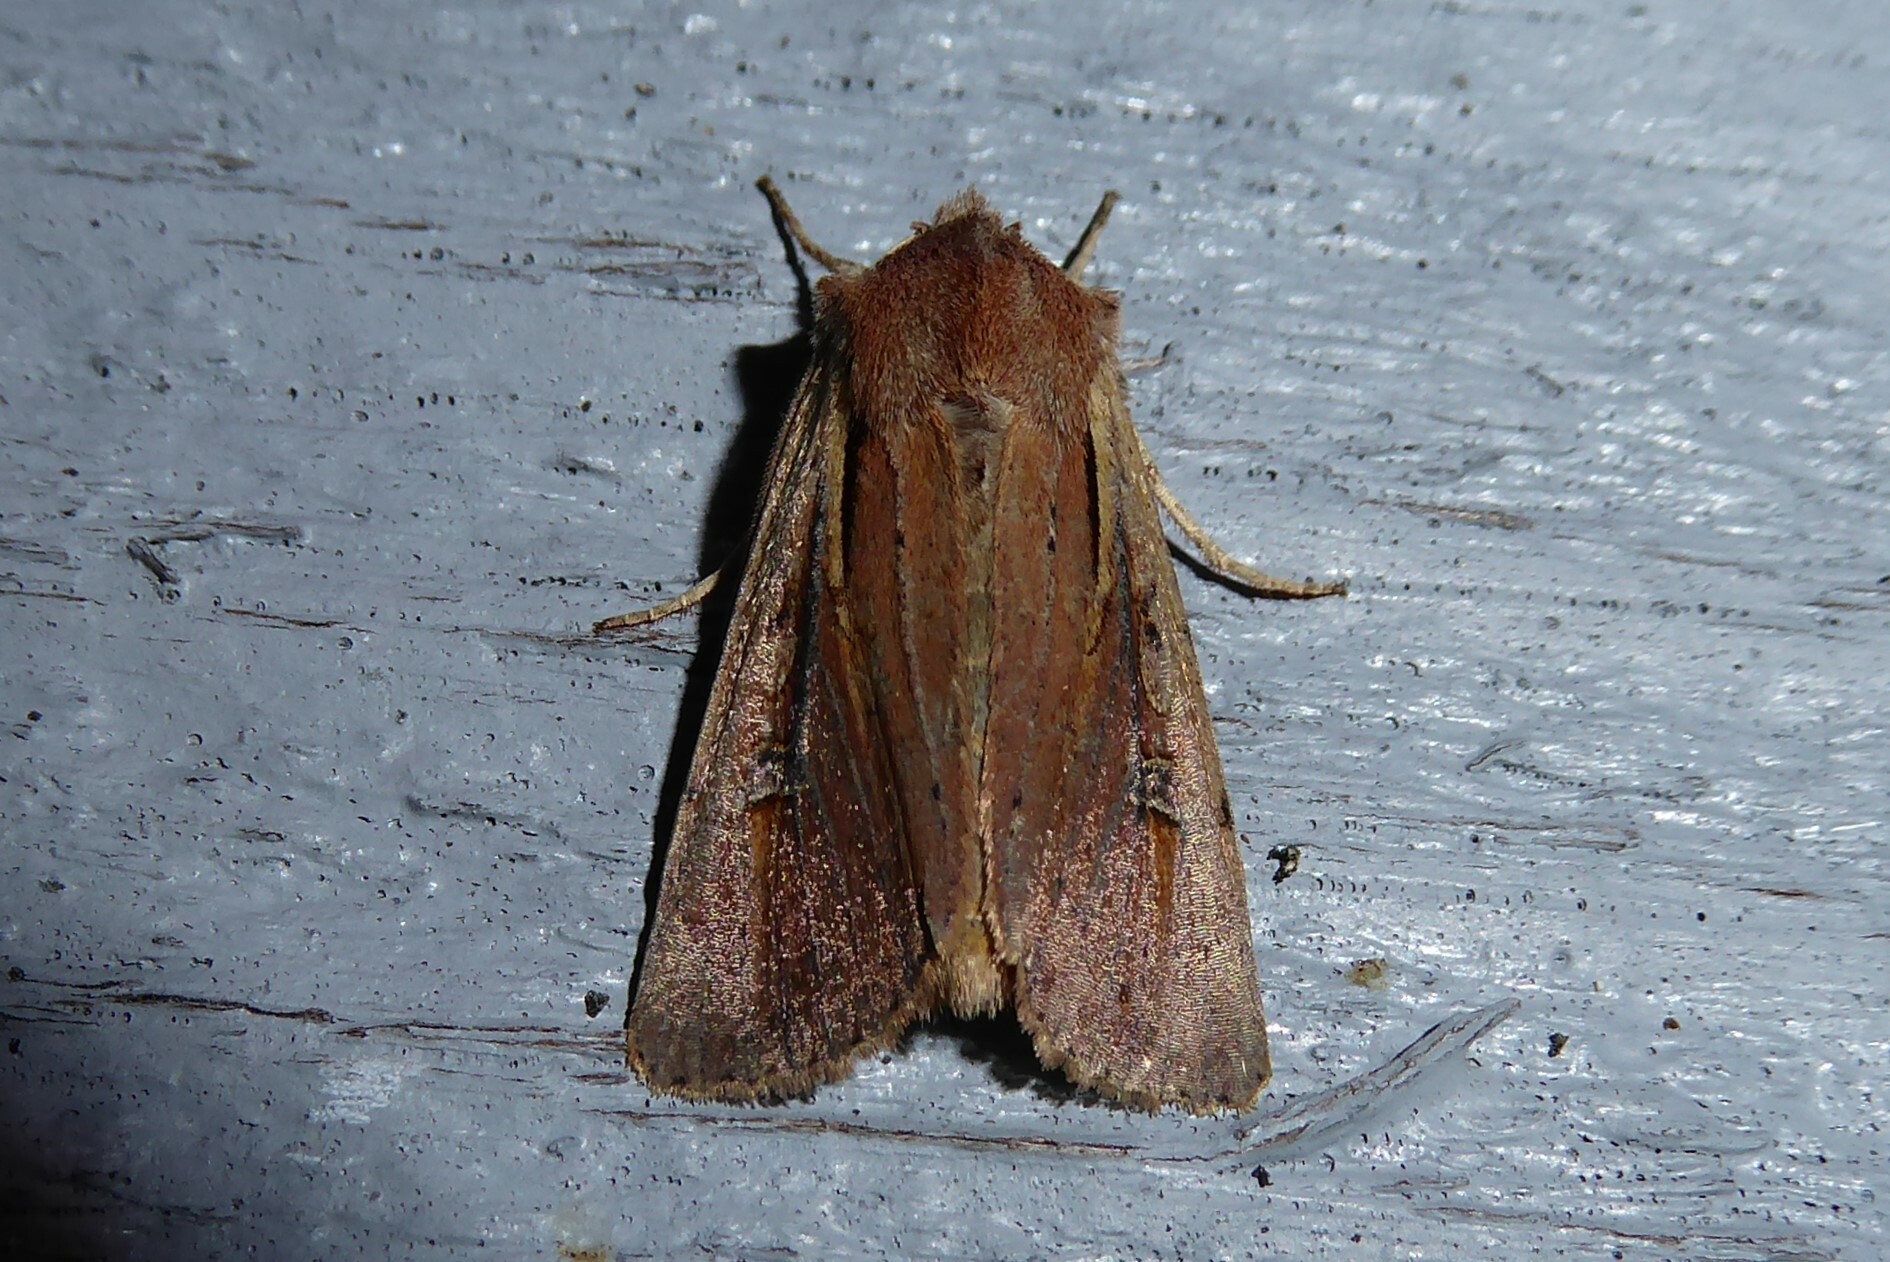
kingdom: Animalia
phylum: Arthropoda
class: Insecta
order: Lepidoptera
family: Noctuidae
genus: Ichneutica
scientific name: Ichneutica atristriga
